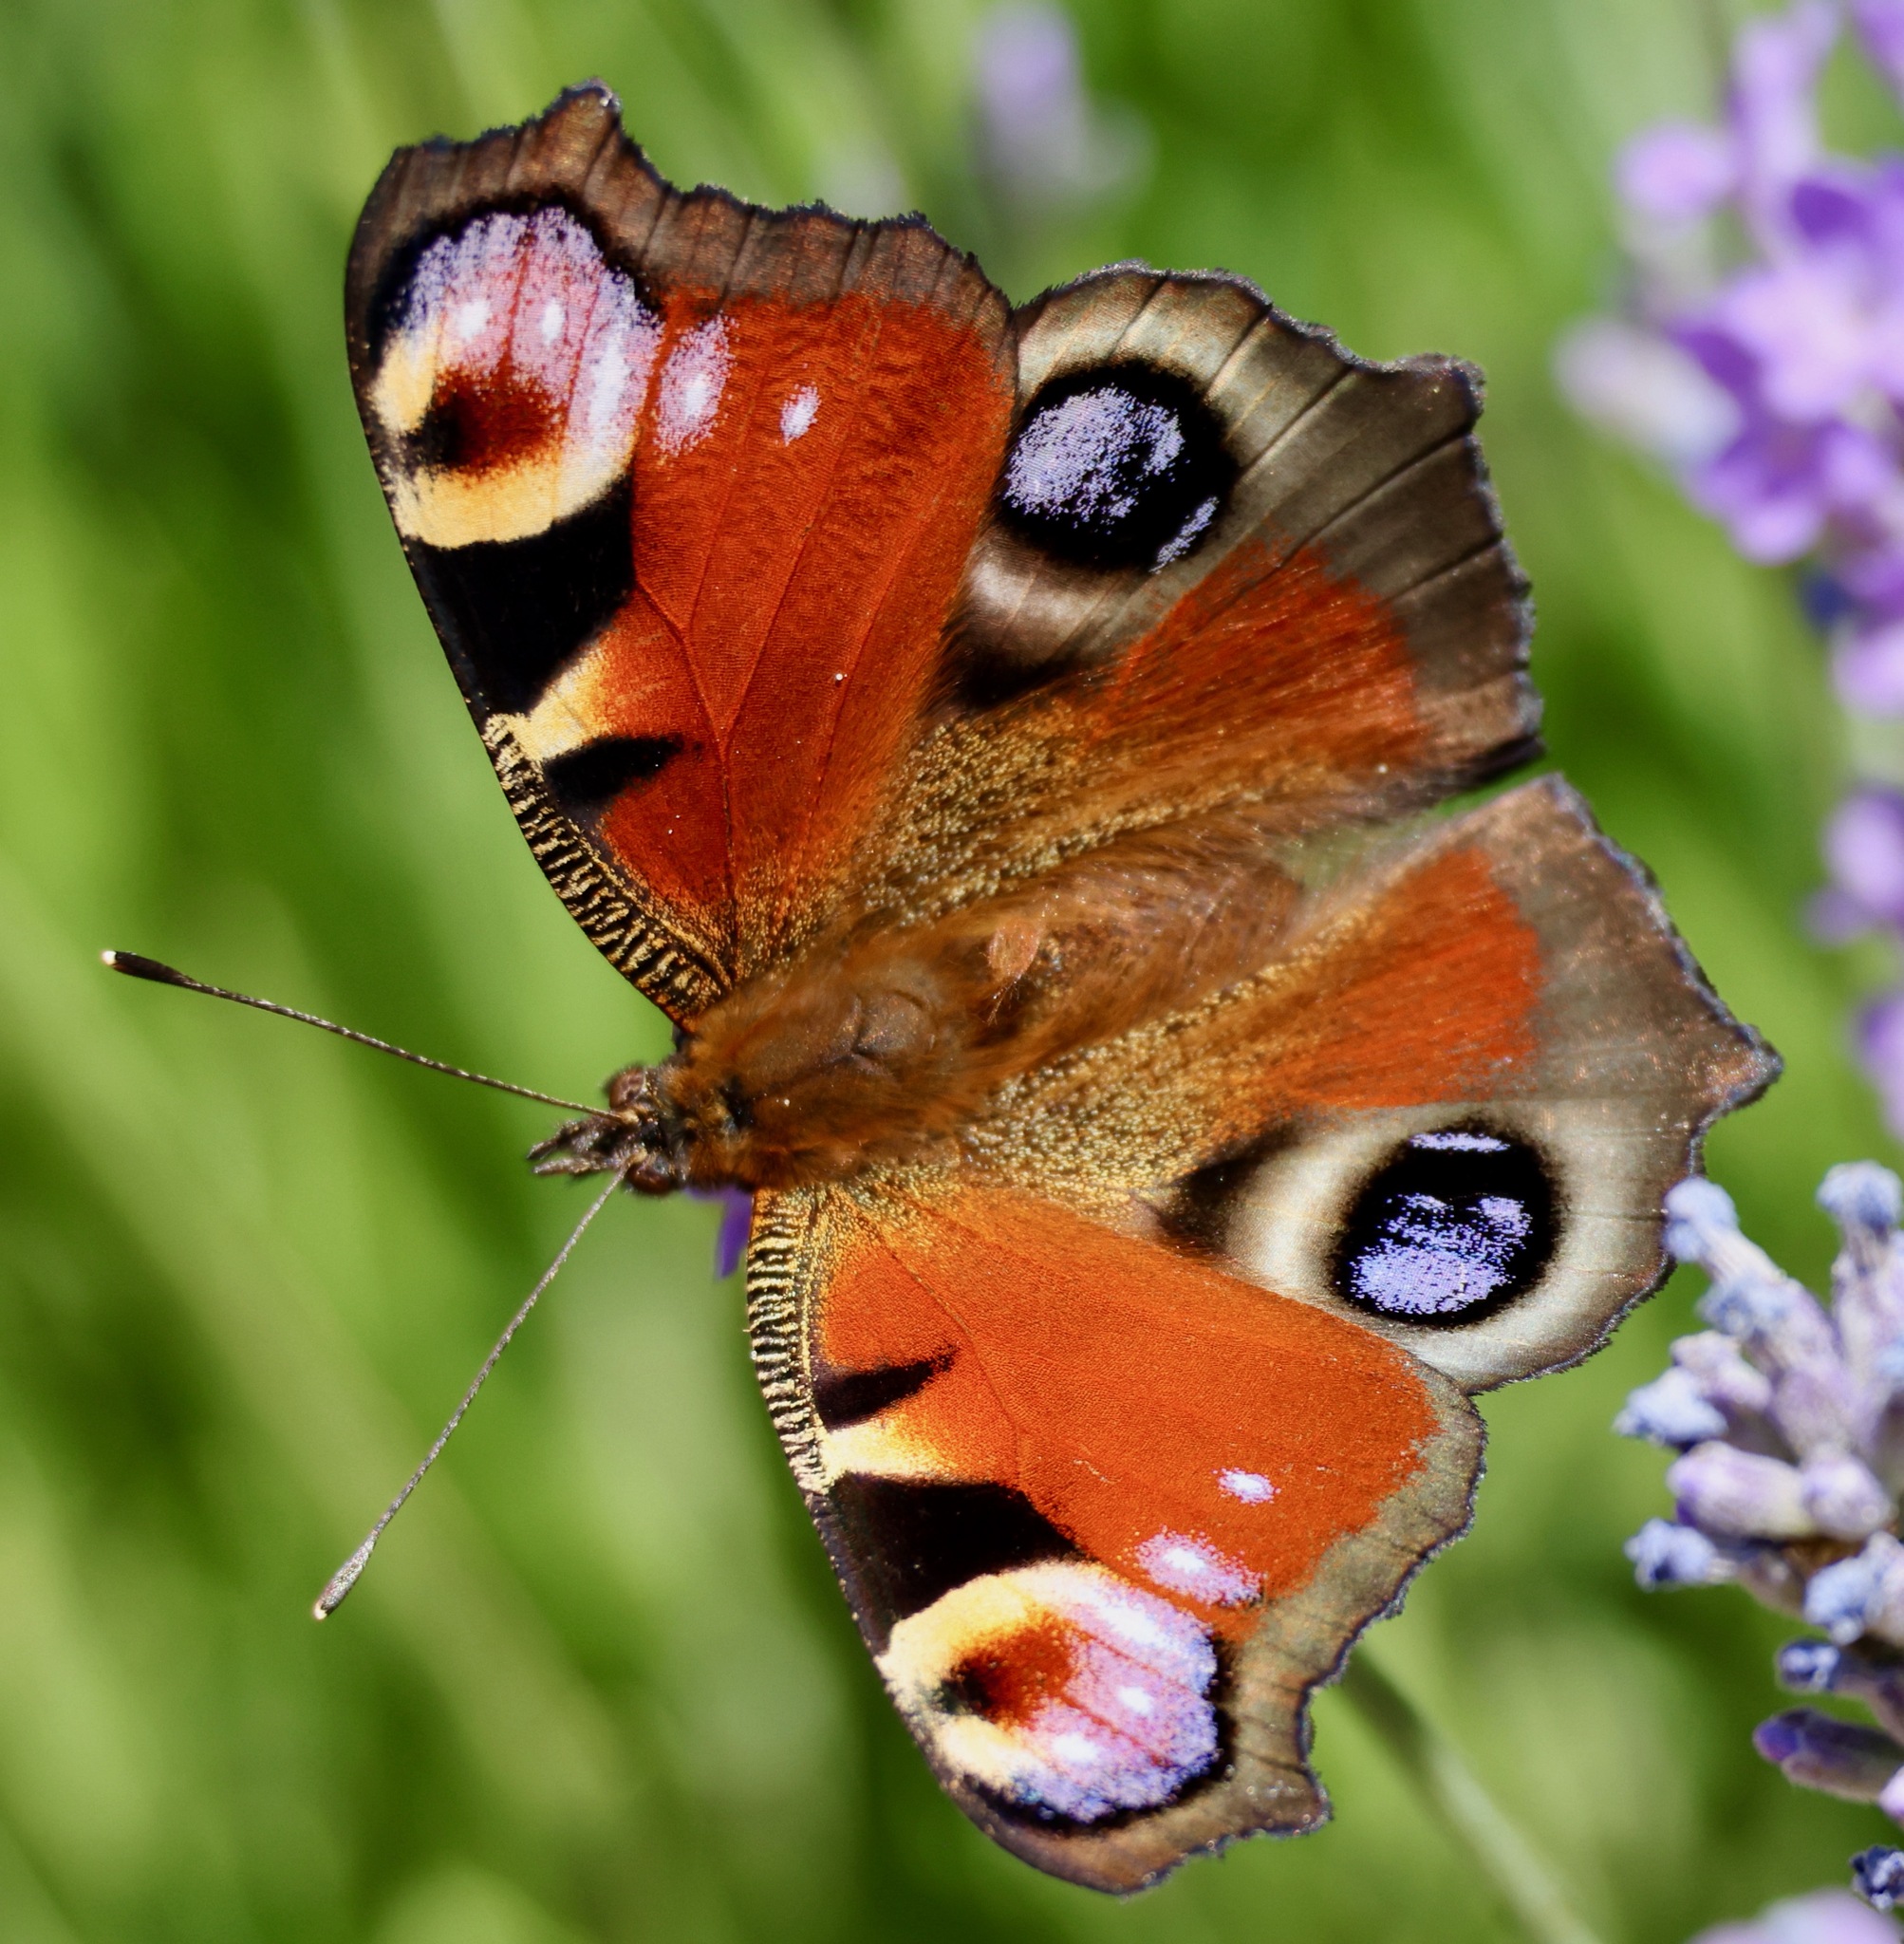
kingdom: Animalia
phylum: Arthropoda
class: Insecta
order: Lepidoptera
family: Nymphalidae
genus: Aglais
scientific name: Aglais io
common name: Peacock
